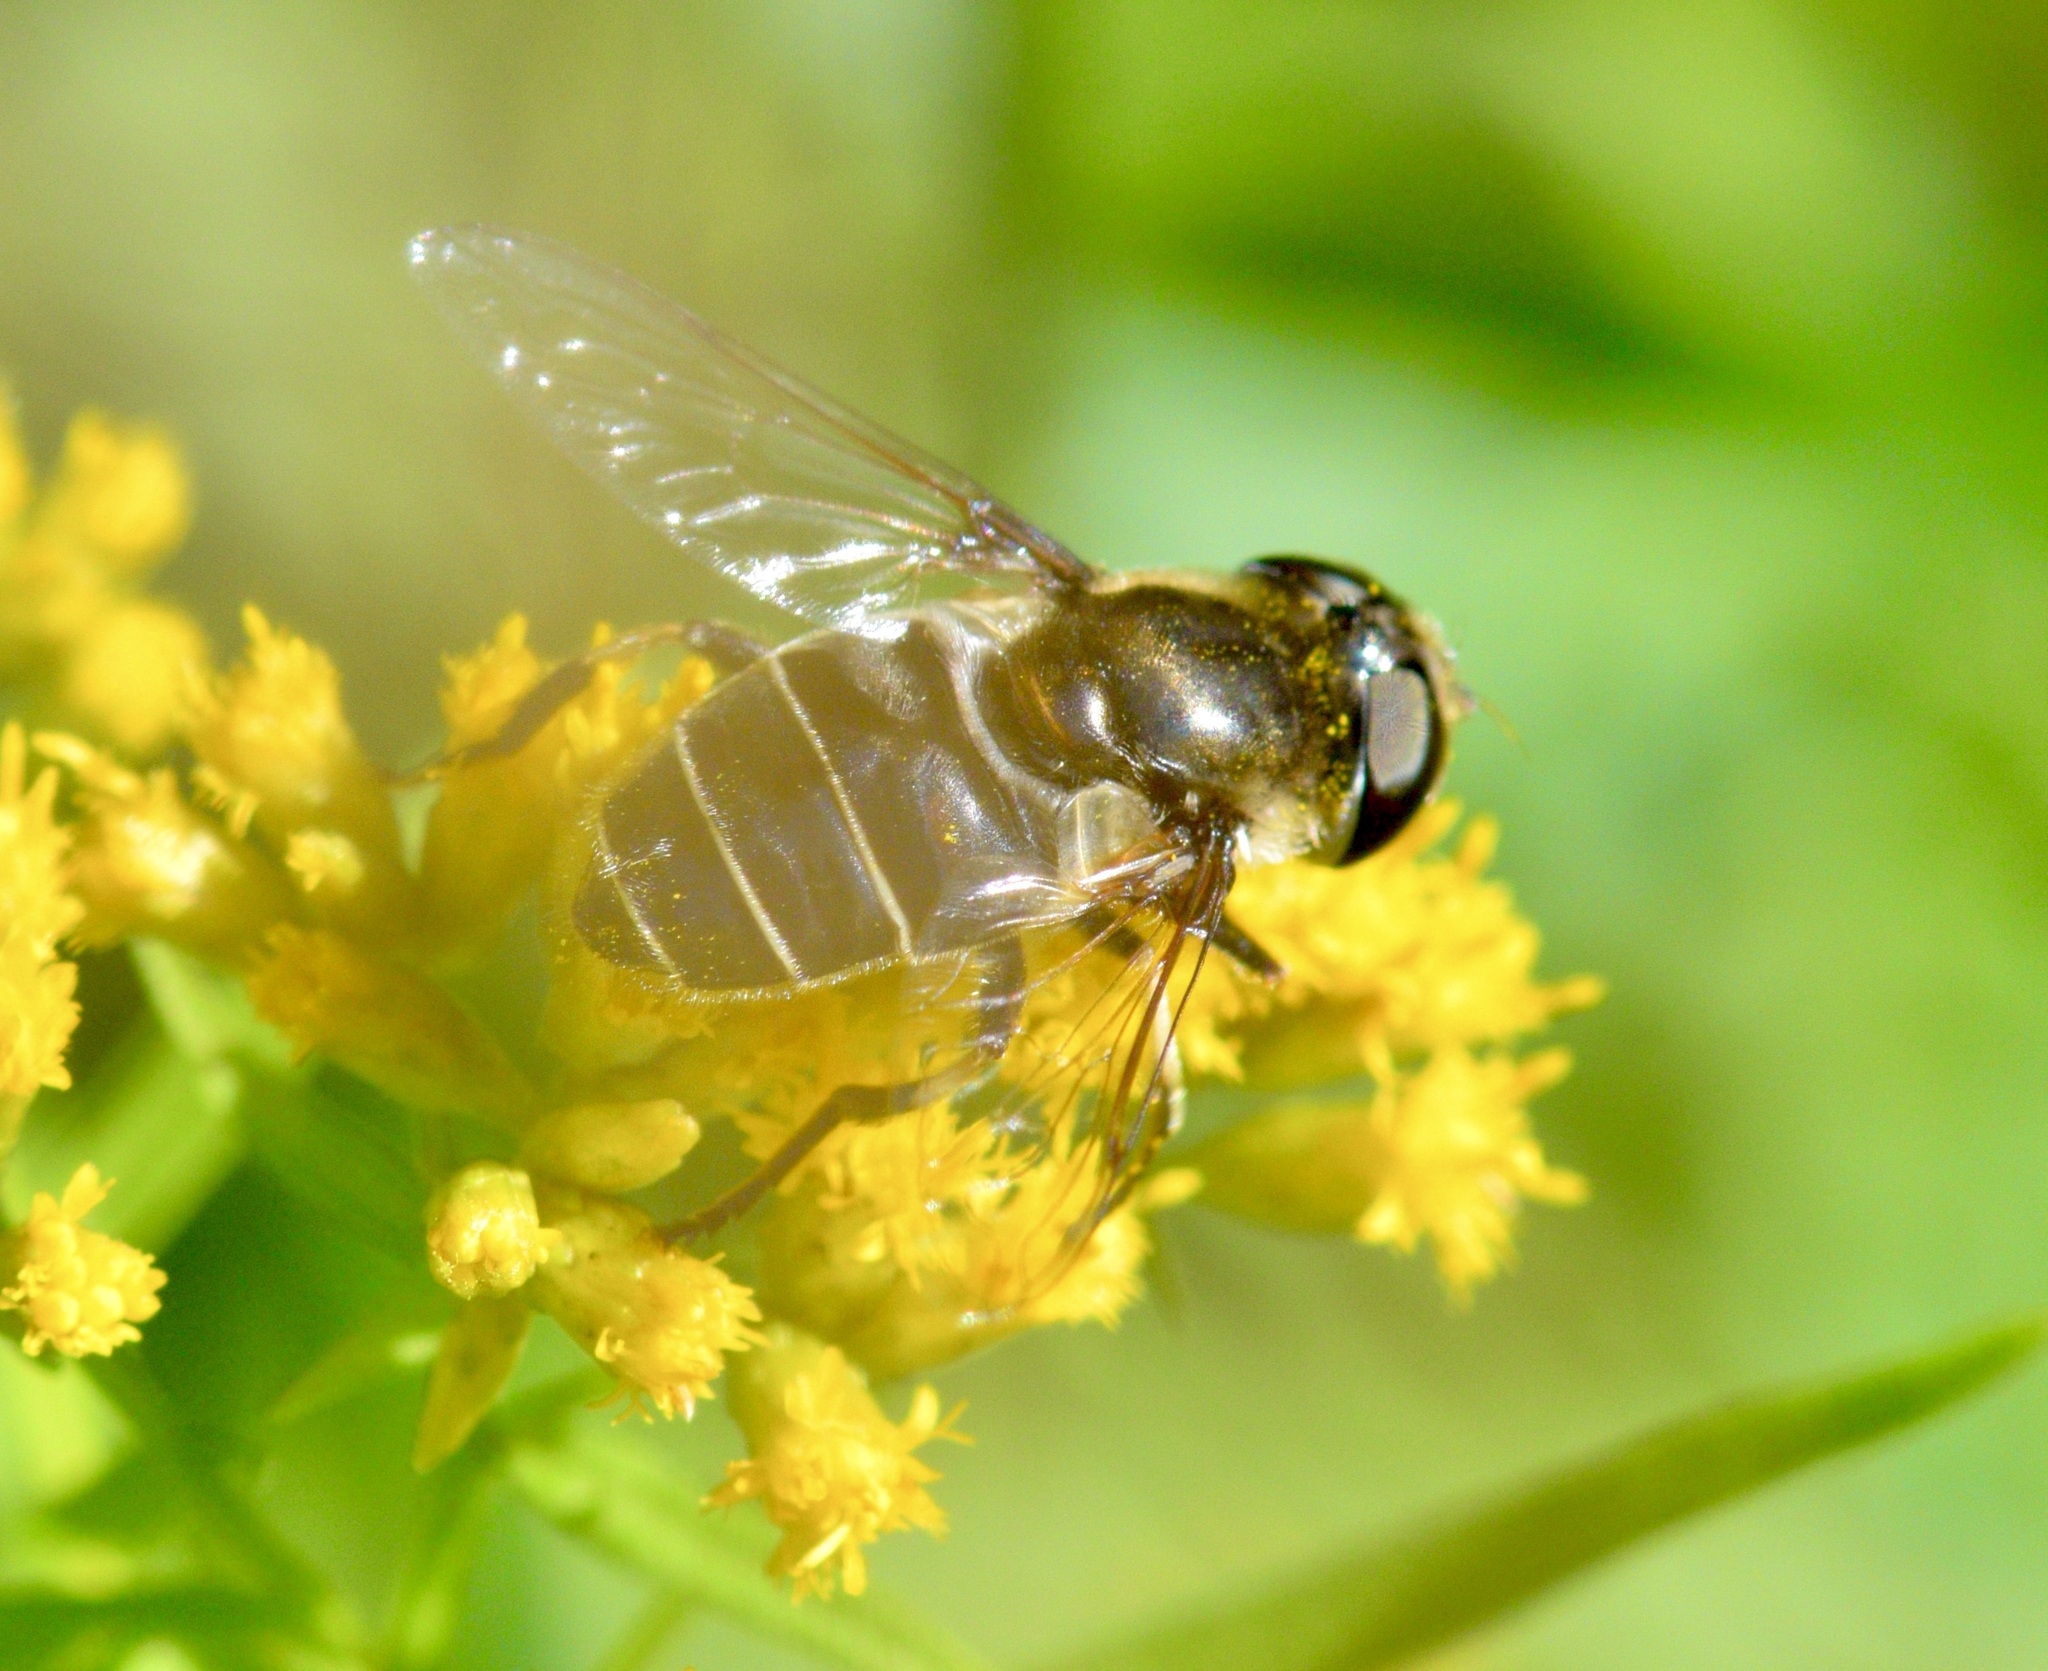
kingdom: Animalia
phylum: Arthropoda
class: Insecta
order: Diptera
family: Syrphidae
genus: Eristalis
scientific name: Eristalis dimidiata
